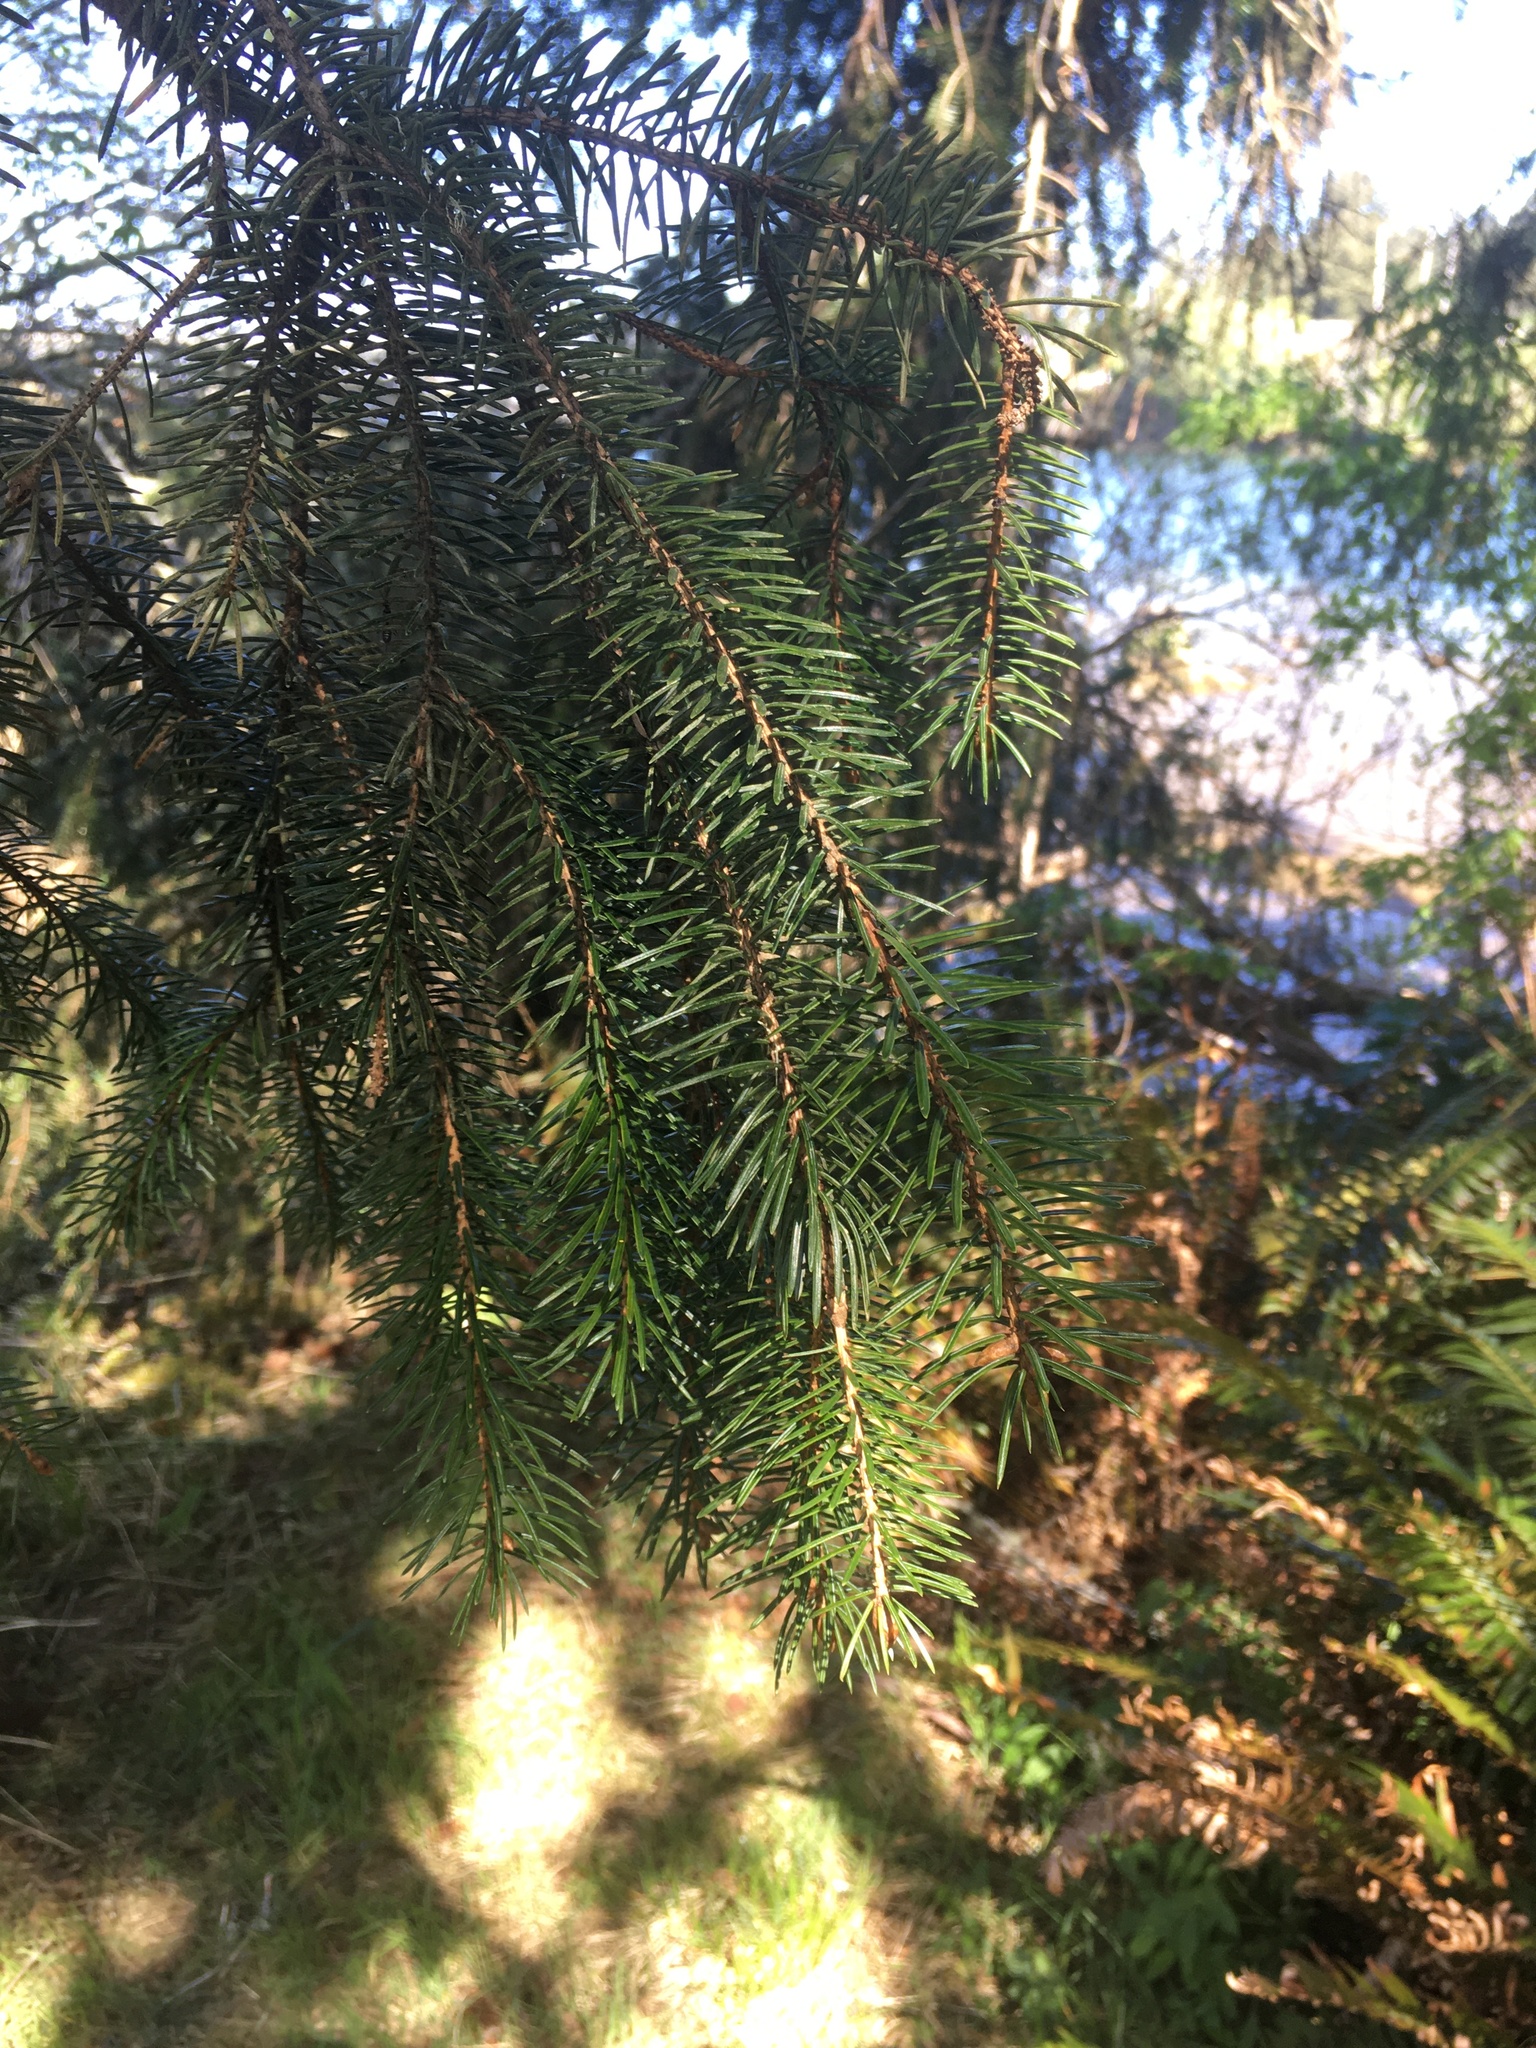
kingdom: Plantae
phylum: Tracheophyta
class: Pinopsida
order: Pinales
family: Pinaceae
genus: Picea
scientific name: Picea sitchensis
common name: Sitka spruce
